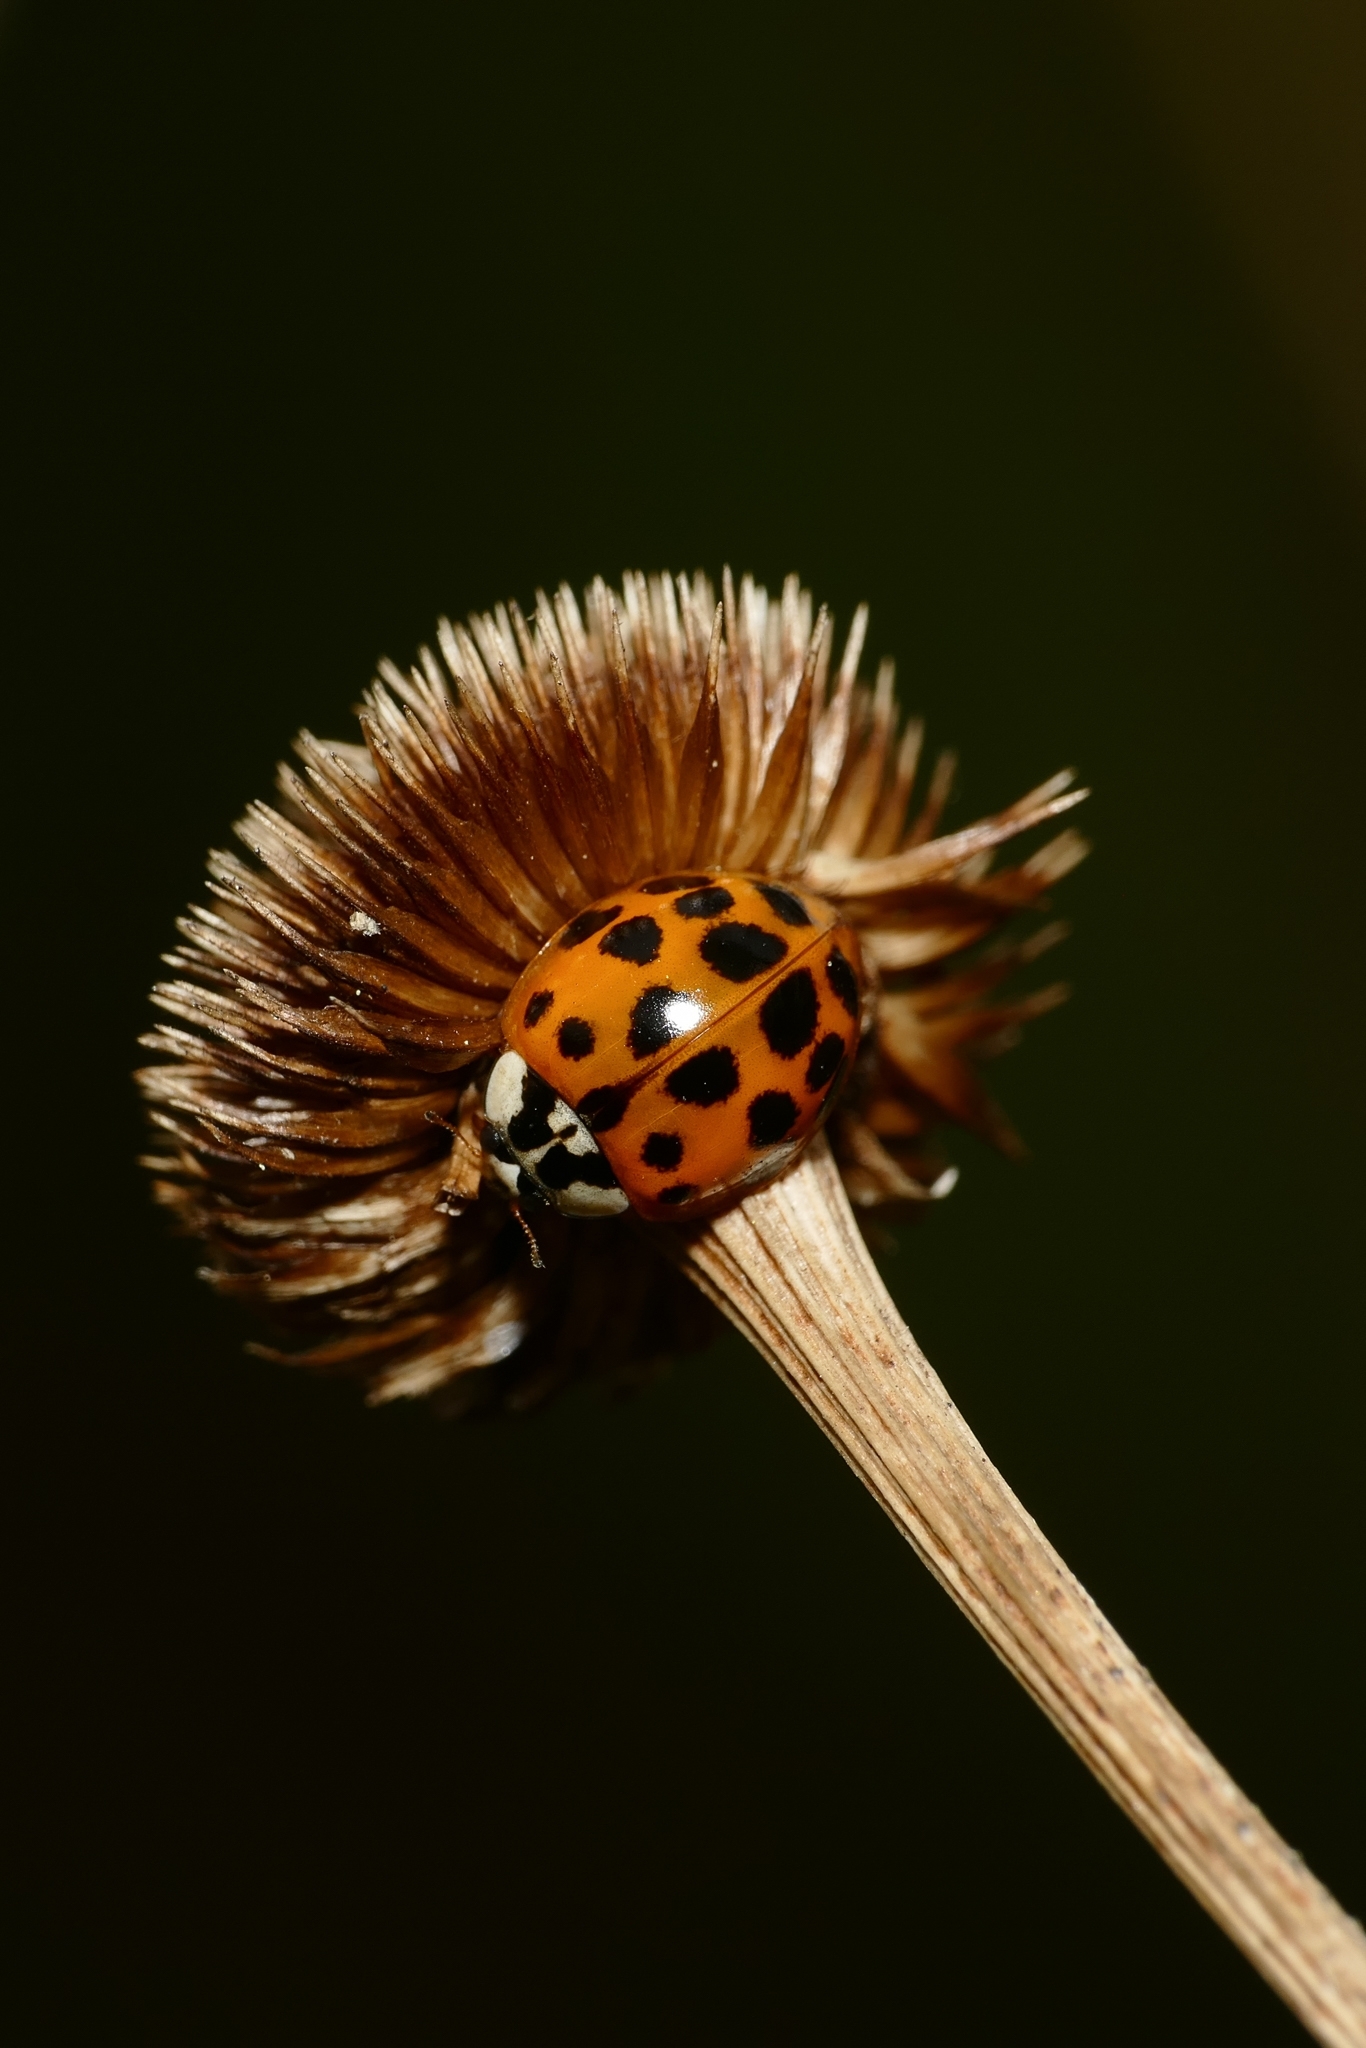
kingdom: Animalia
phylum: Arthropoda
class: Insecta
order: Coleoptera
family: Coccinellidae
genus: Harmonia
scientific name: Harmonia axyridis
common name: Harlequin ladybird
